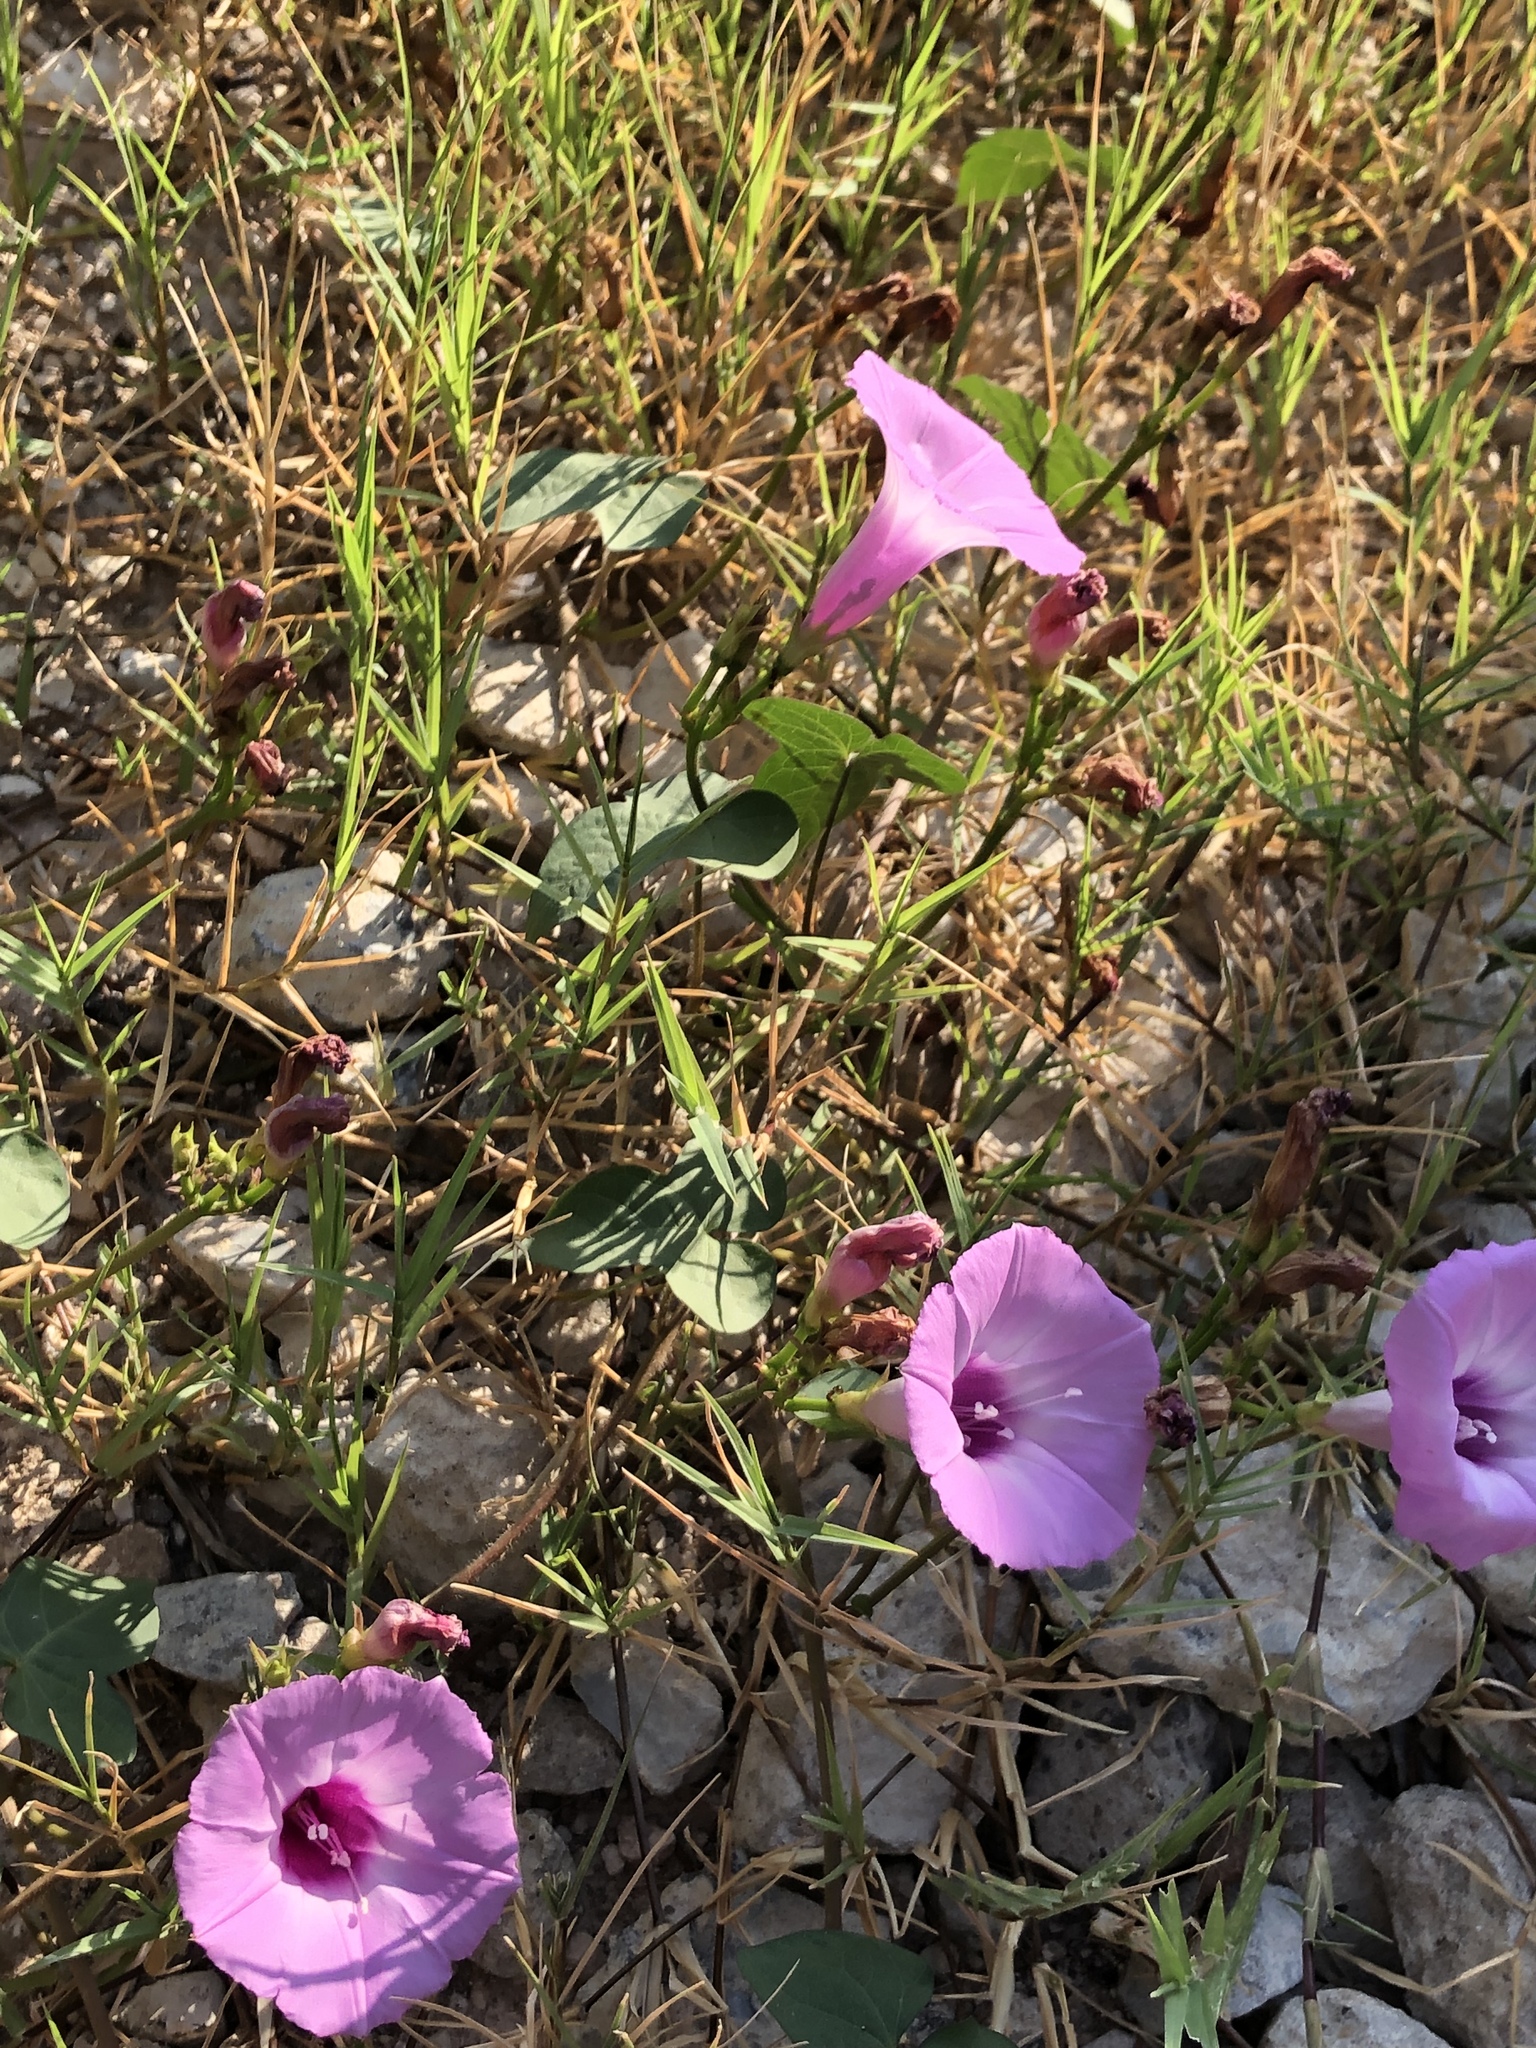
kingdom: Plantae
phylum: Tracheophyta
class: Magnoliopsida
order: Solanales
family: Convolvulaceae
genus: Ipomoea
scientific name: Ipomoea cordatotriloba
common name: Cotton morning glory
